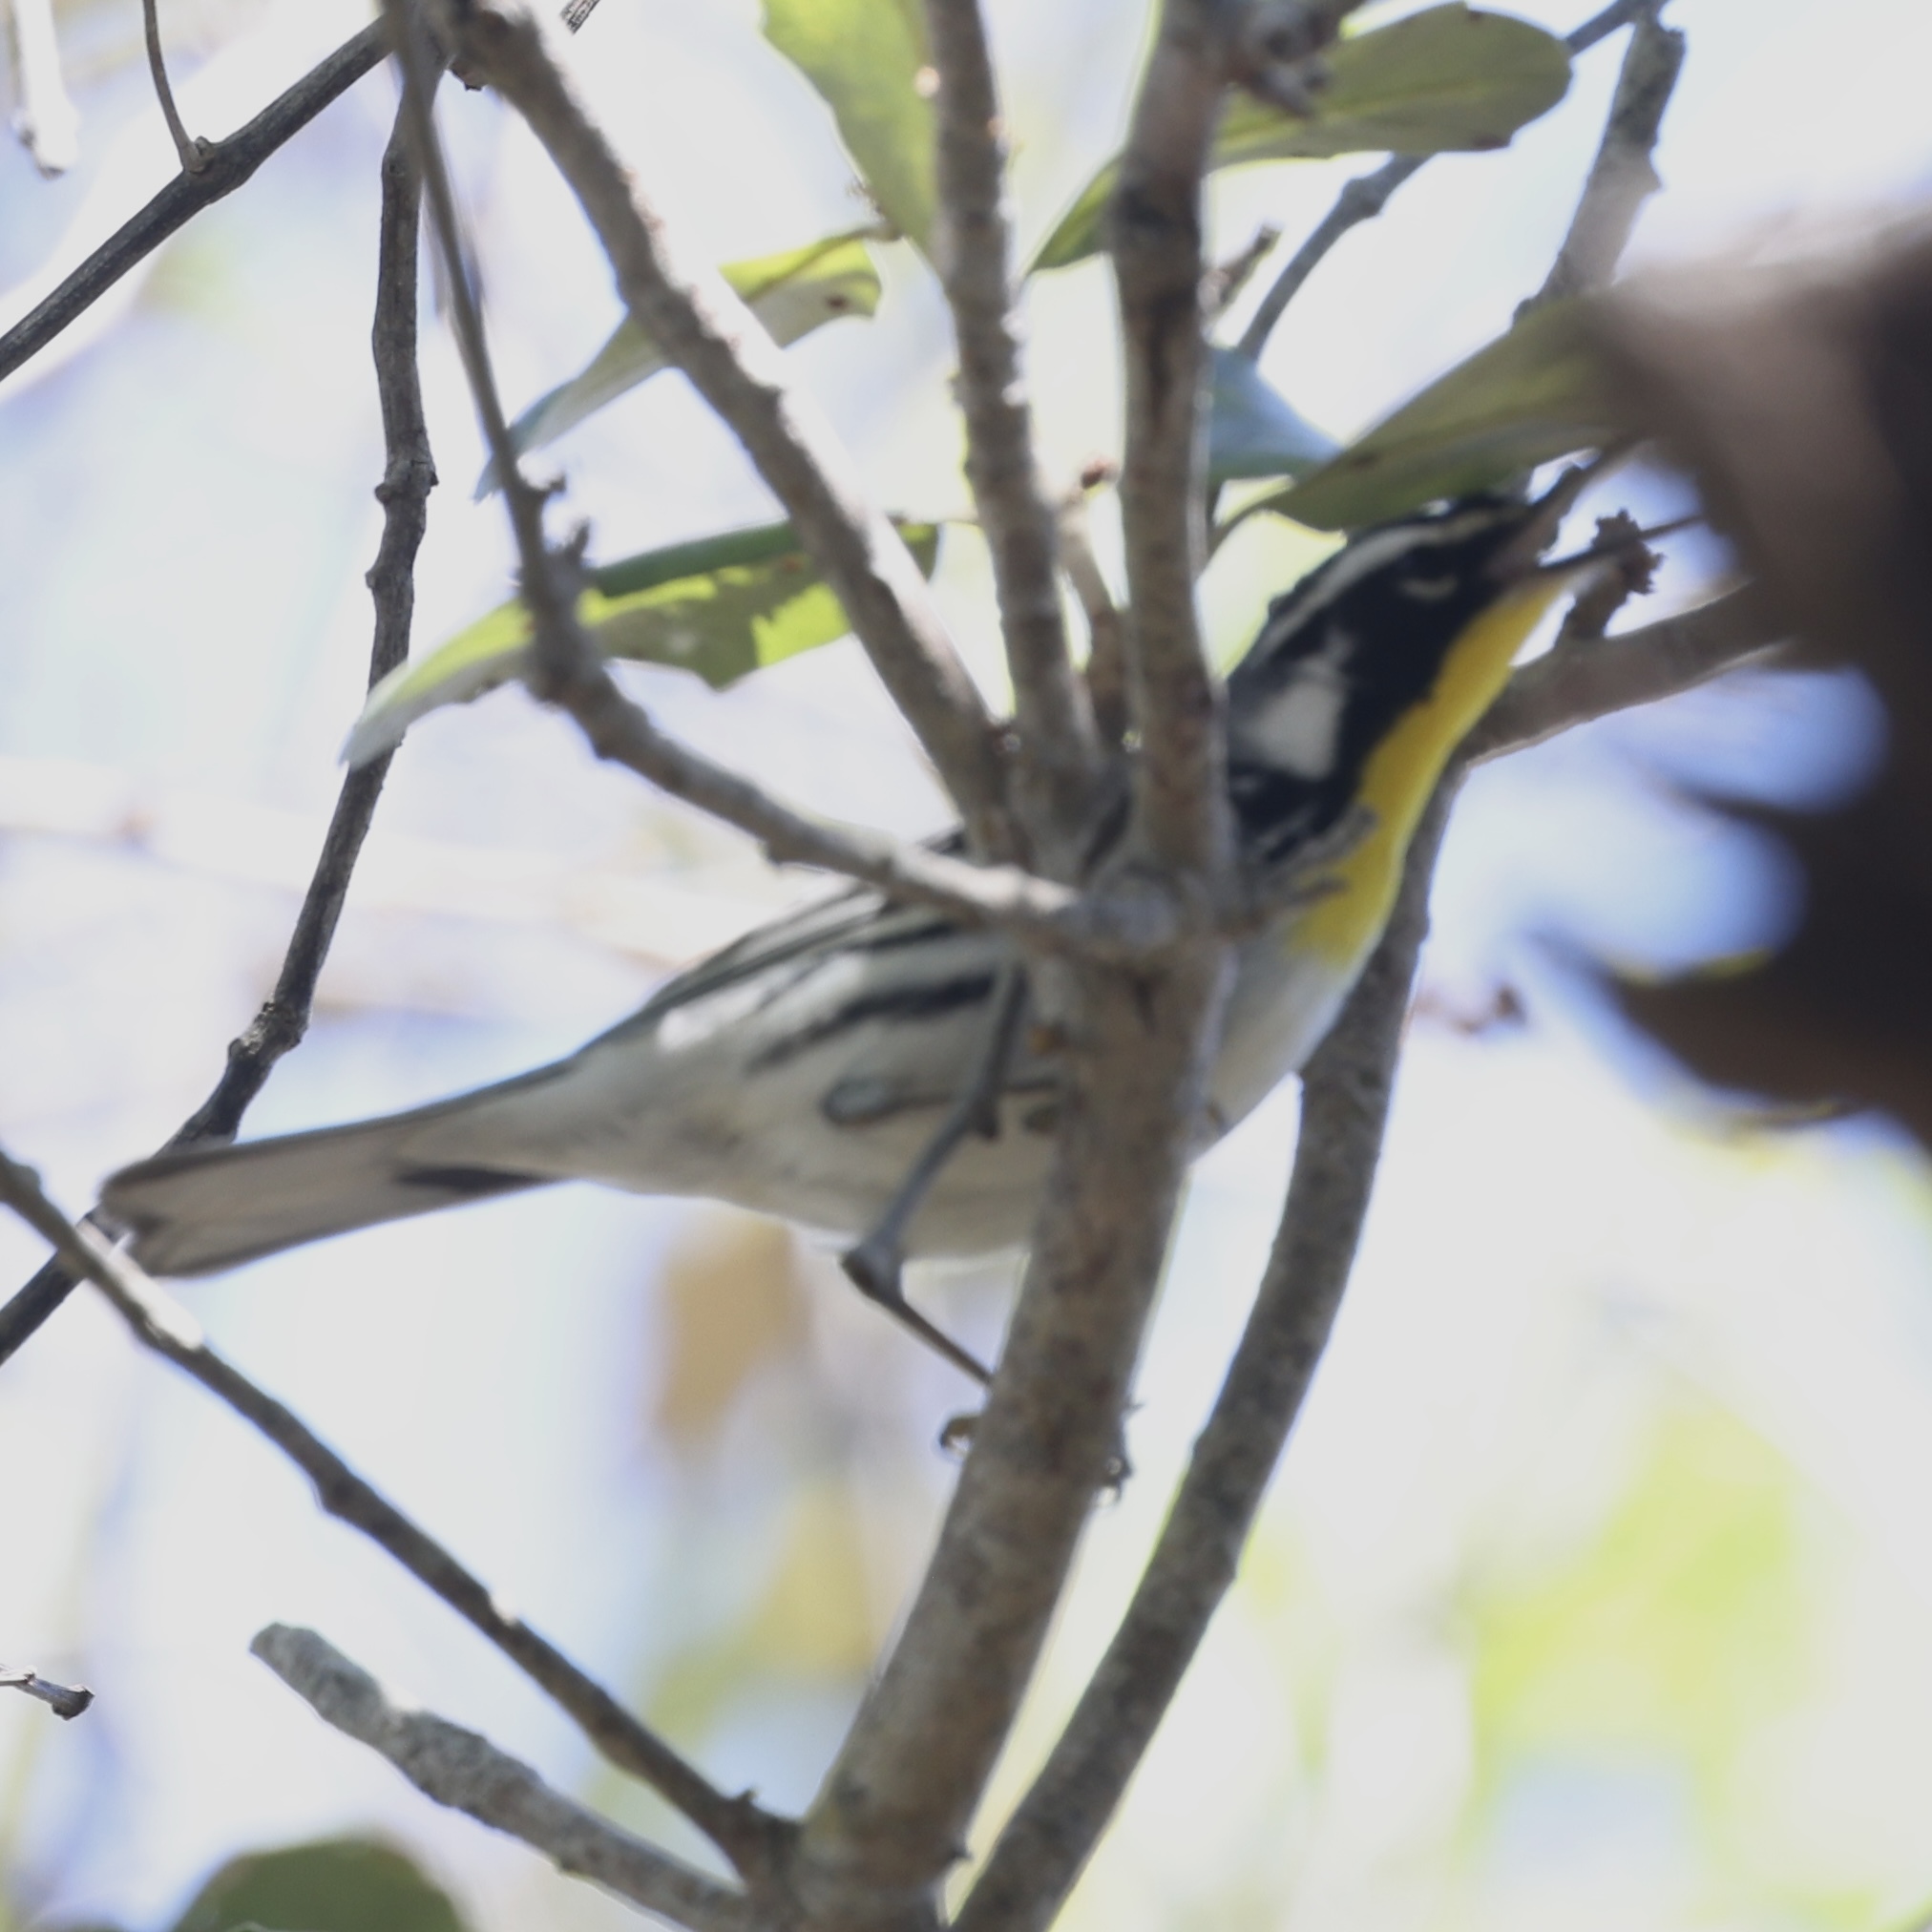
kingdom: Animalia
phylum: Chordata
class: Aves
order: Passeriformes
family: Parulidae
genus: Setophaga
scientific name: Setophaga dominica
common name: Yellow-throated warbler
